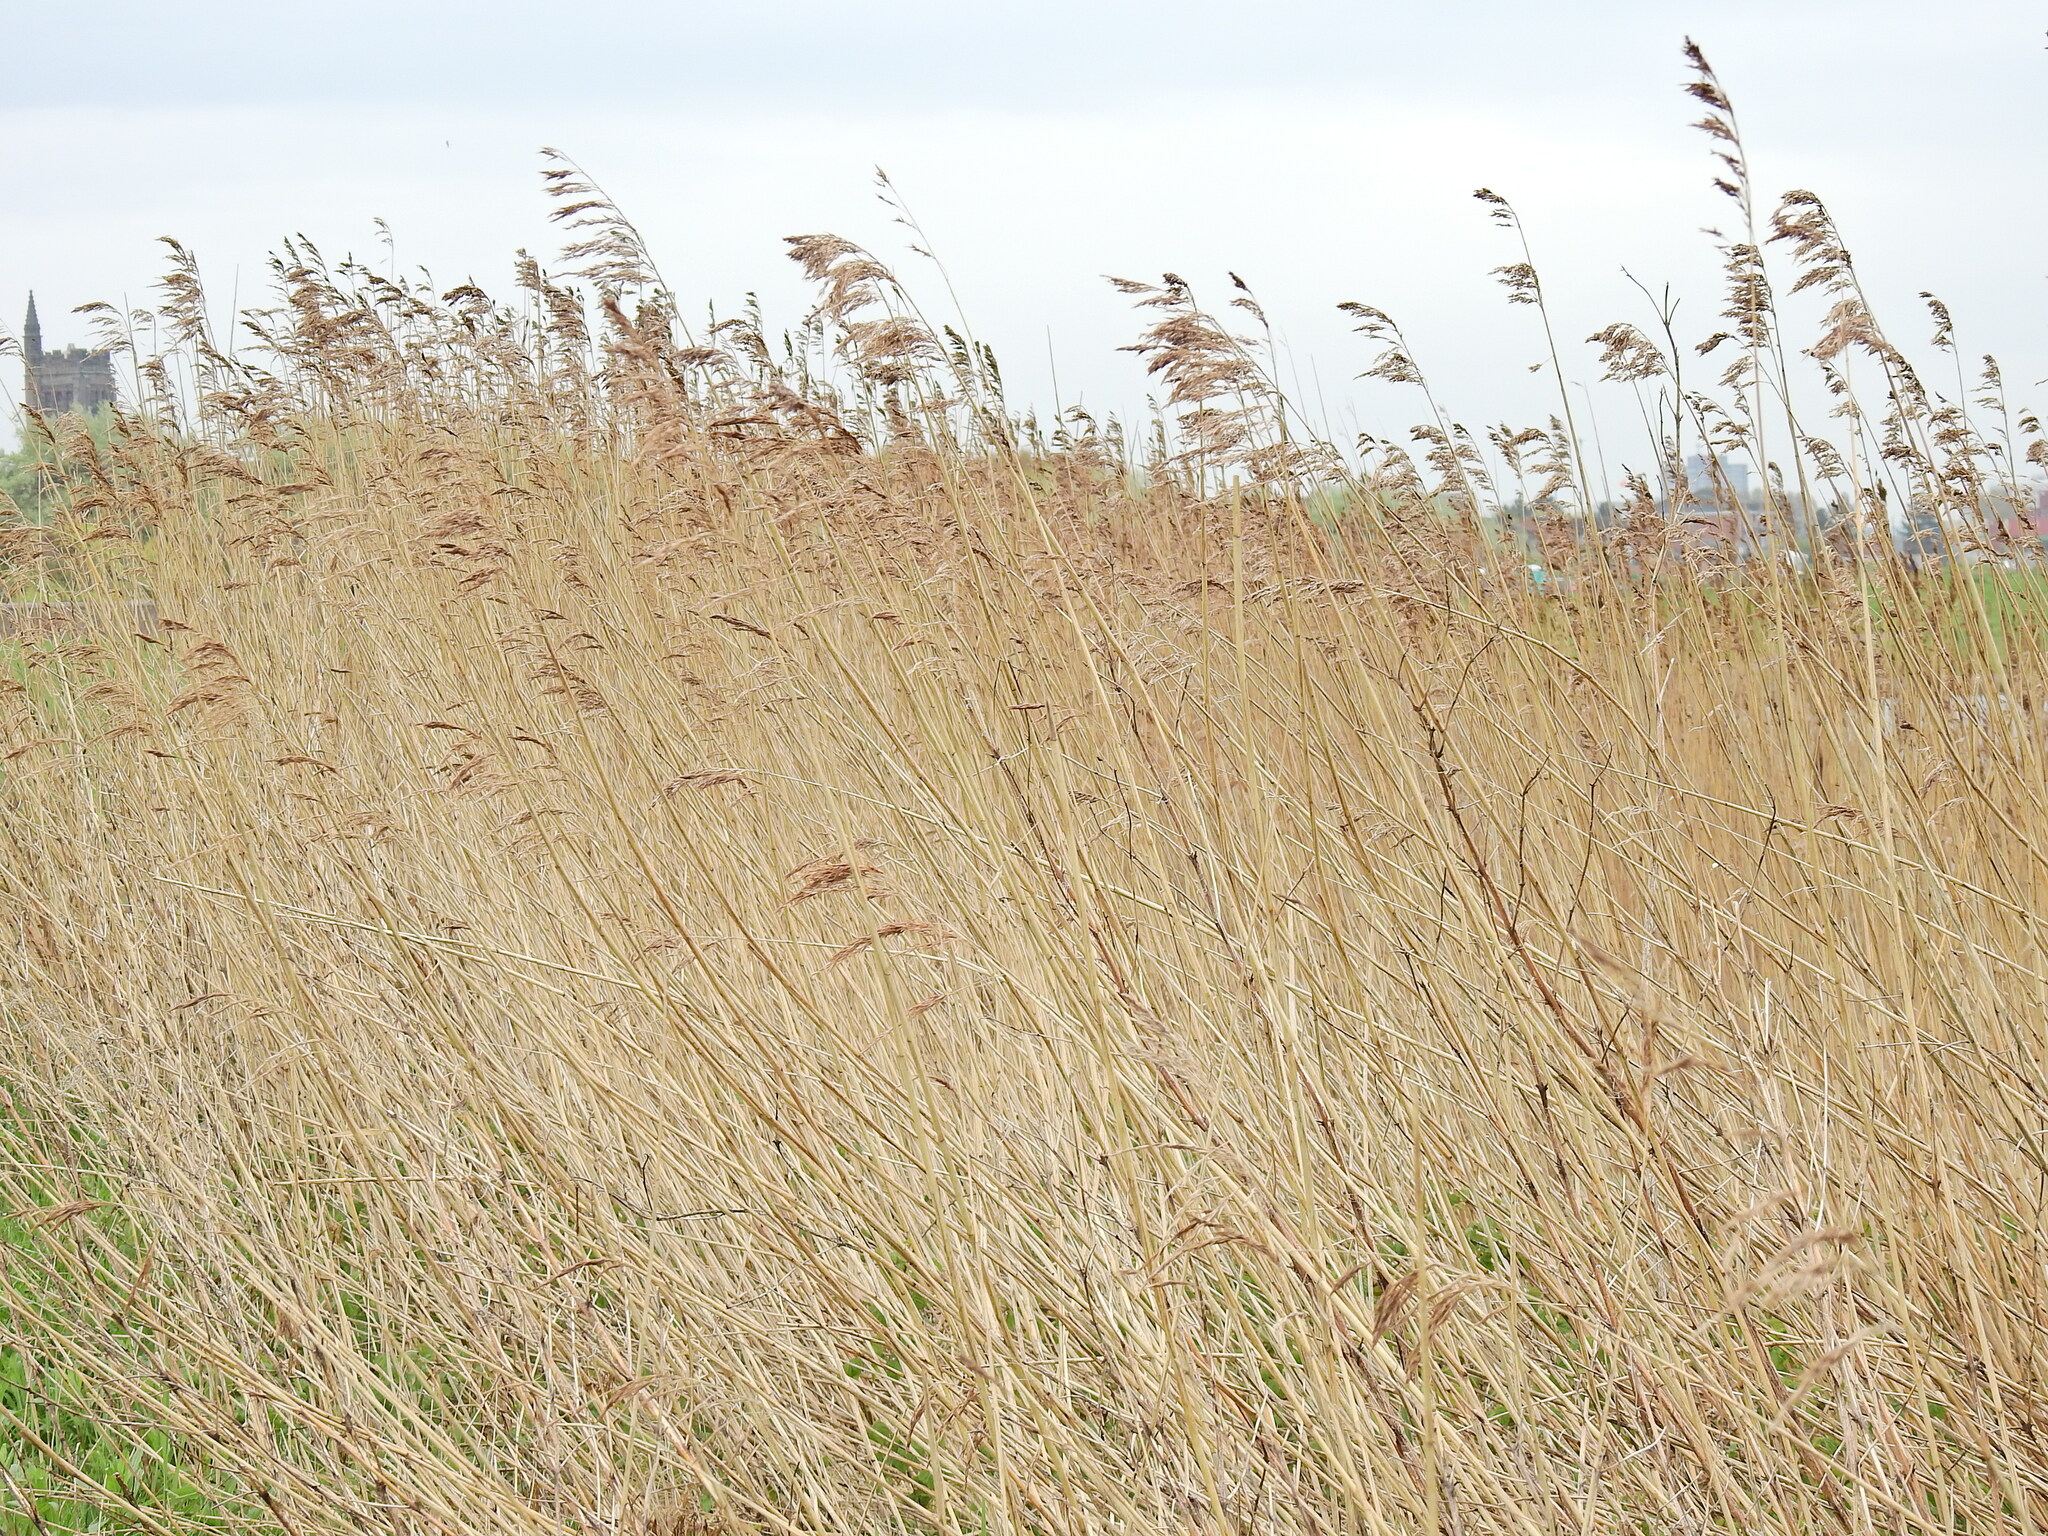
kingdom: Plantae
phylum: Tracheophyta
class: Liliopsida
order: Poales
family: Poaceae
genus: Phragmites
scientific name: Phragmites australis
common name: Common reed
